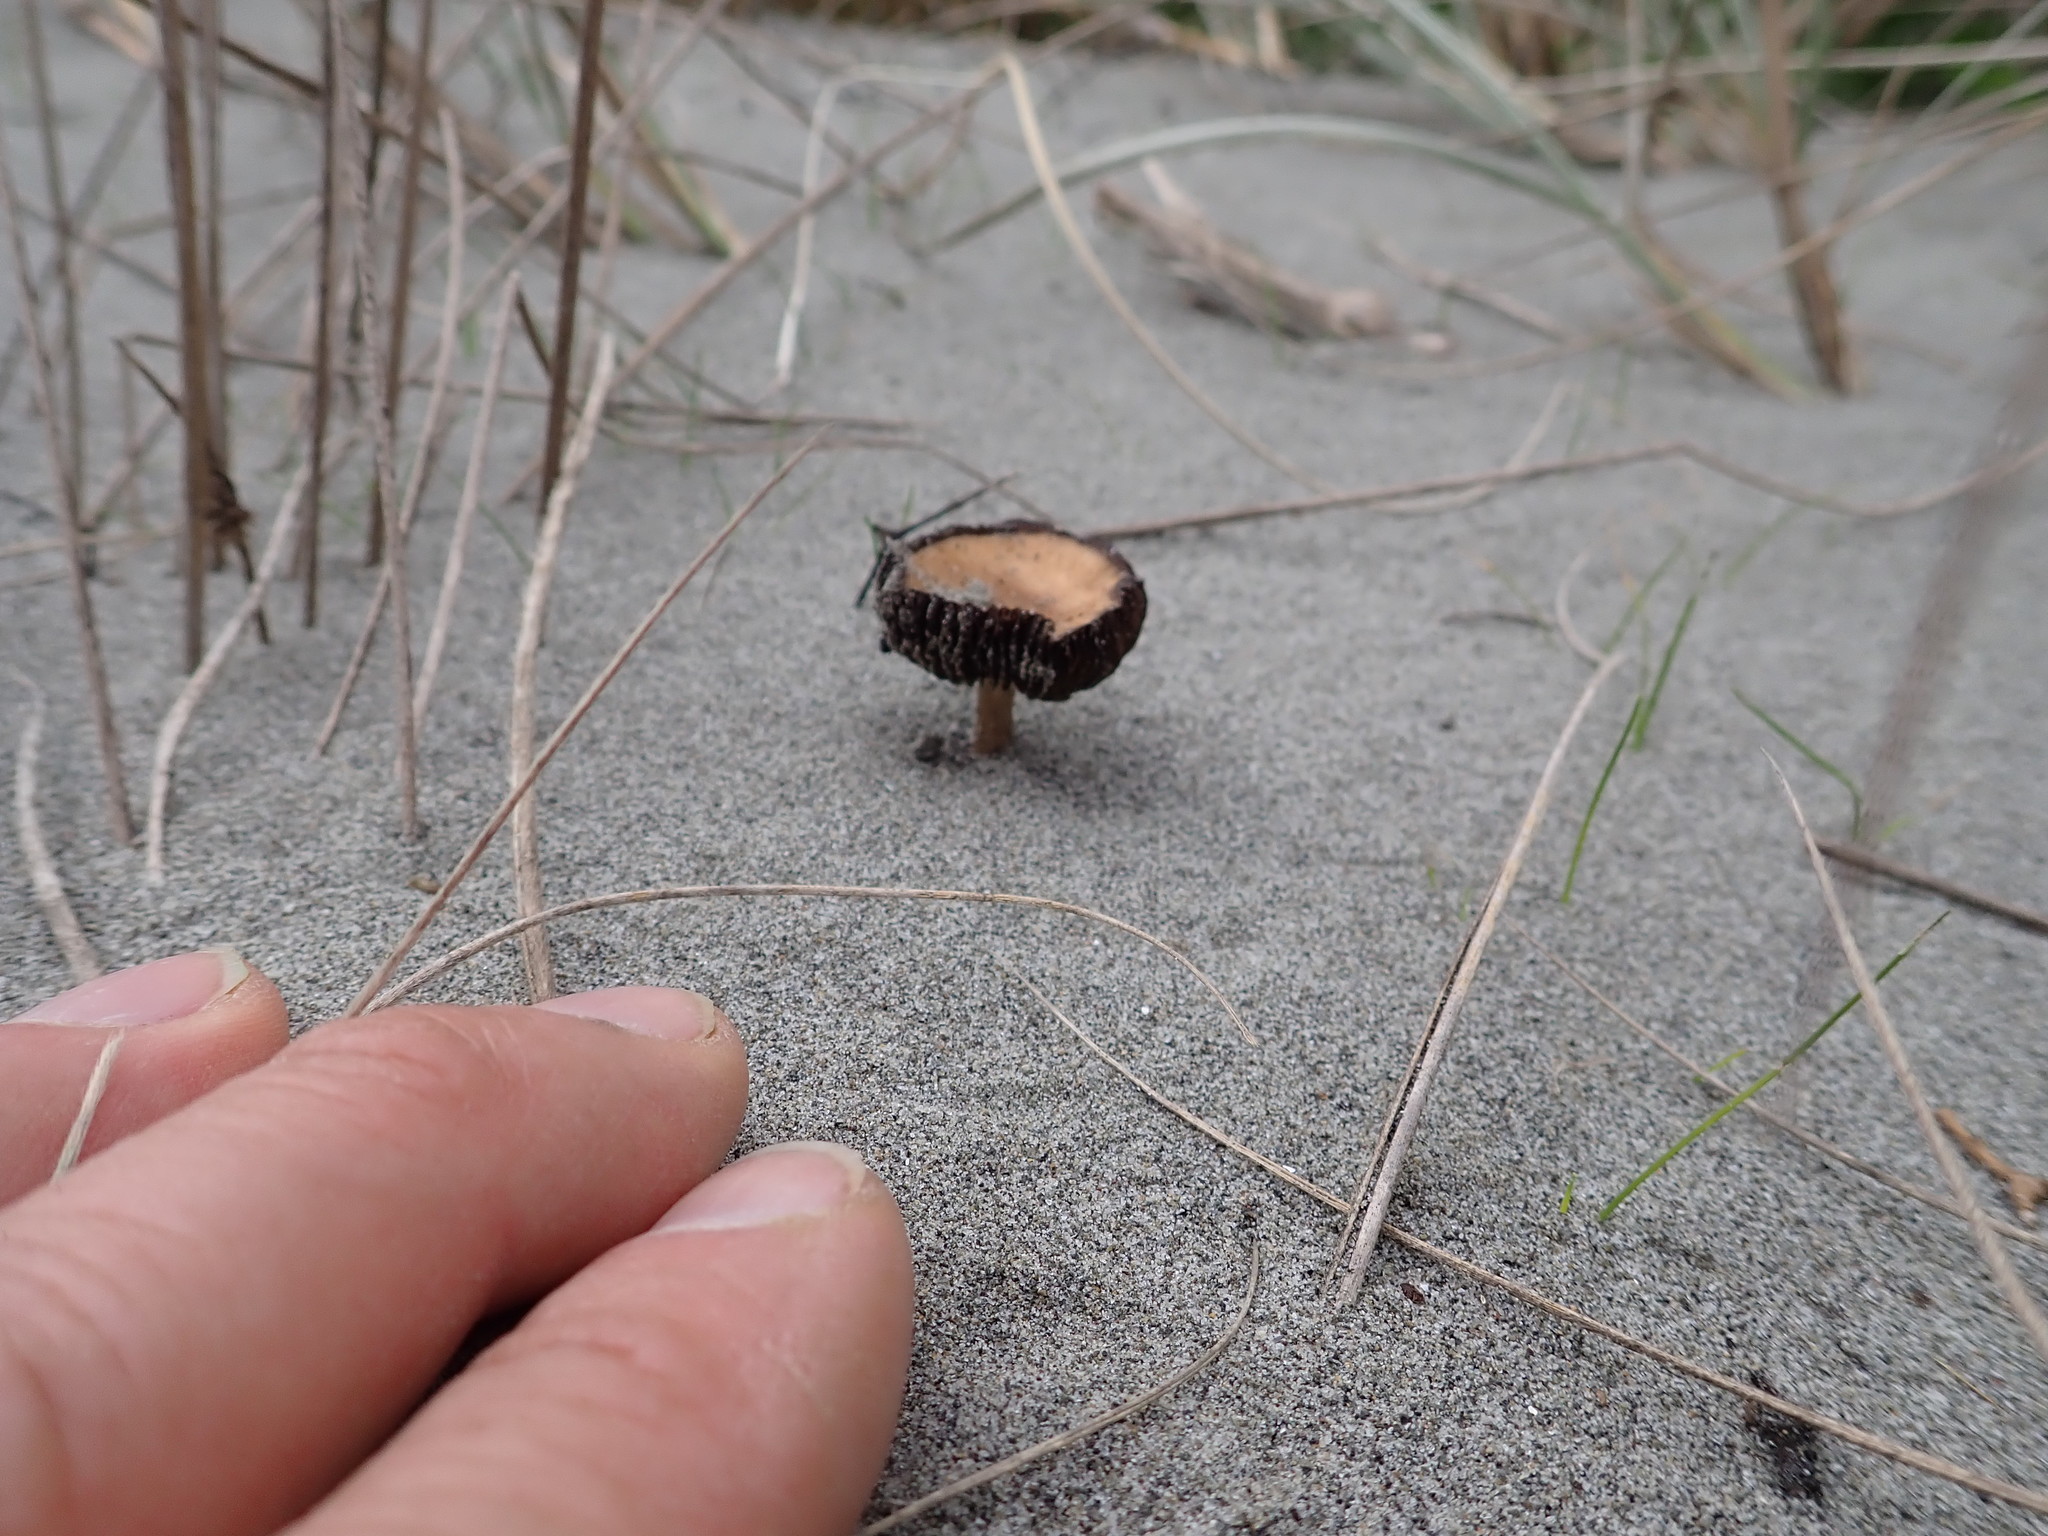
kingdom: Fungi
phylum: Basidiomycota
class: Agaricomycetes
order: Agaricales
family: Psathyrellaceae
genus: Psathyrella
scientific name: Psathyrella ammophila
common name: Dune brittlestem
